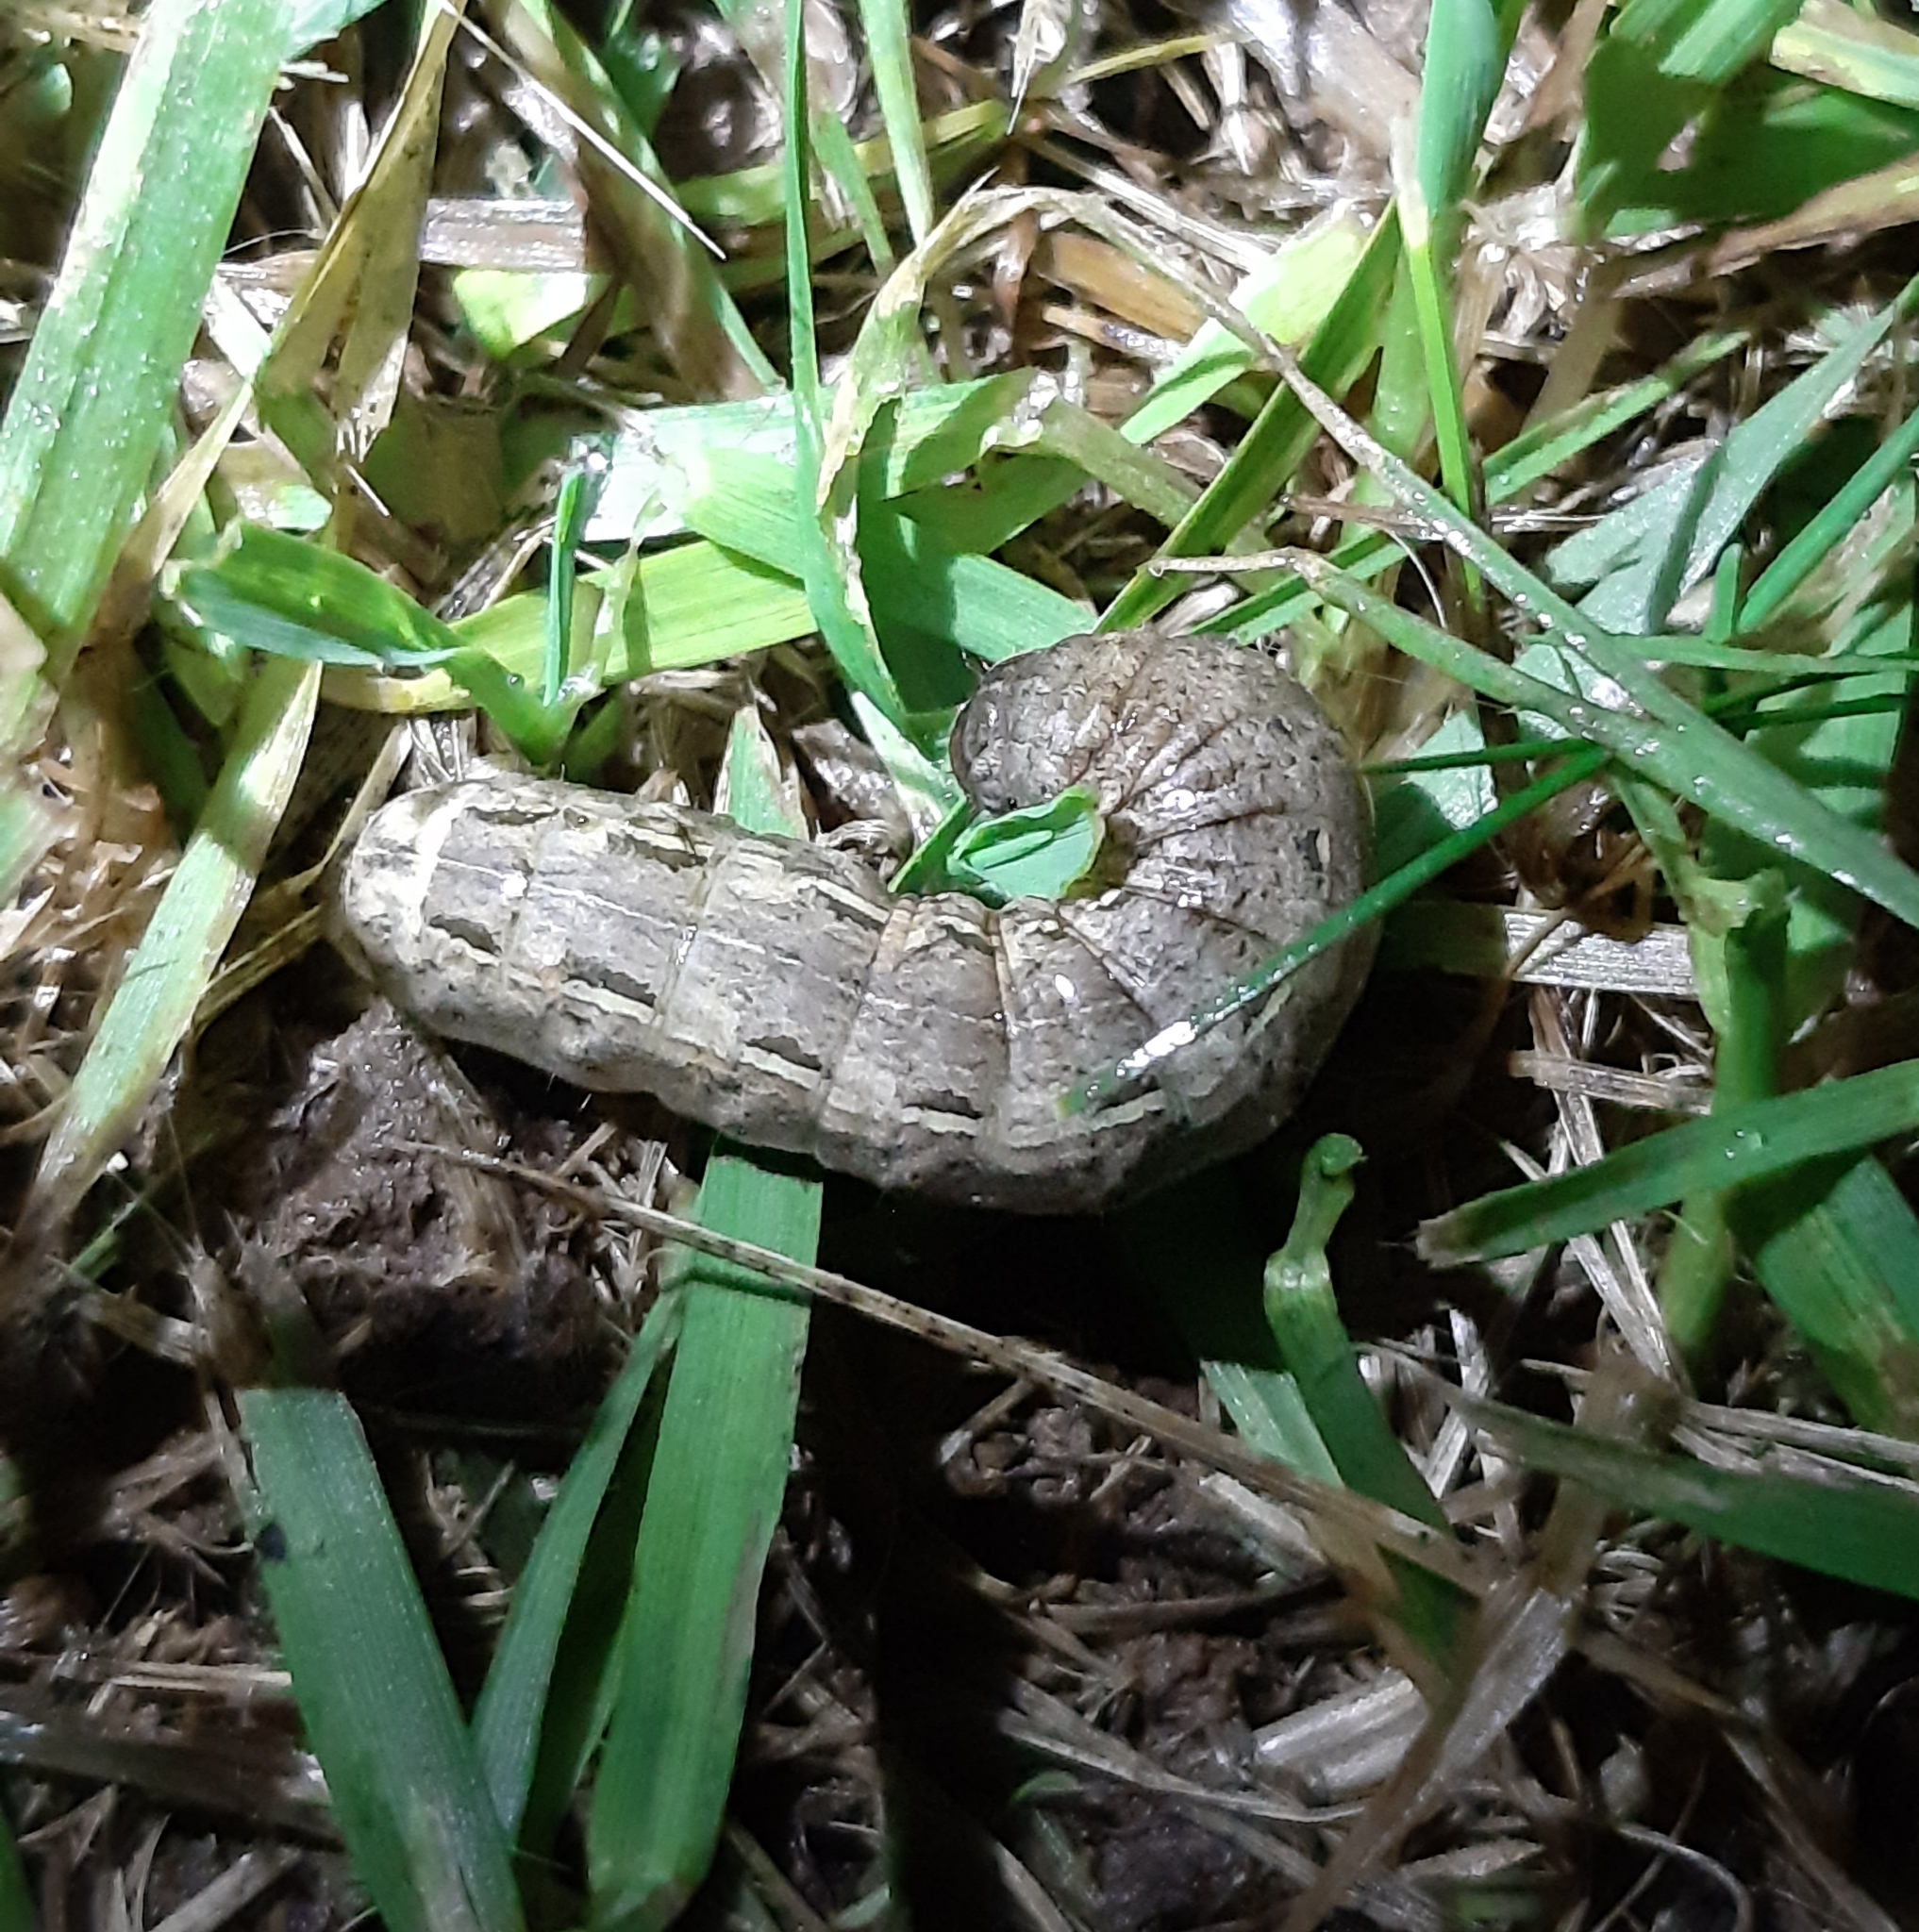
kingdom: Animalia
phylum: Arthropoda
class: Insecta
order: Lepidoptera
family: Noctuidae
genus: Noctua
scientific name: Noctua pronuba
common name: Large yellow underwing
